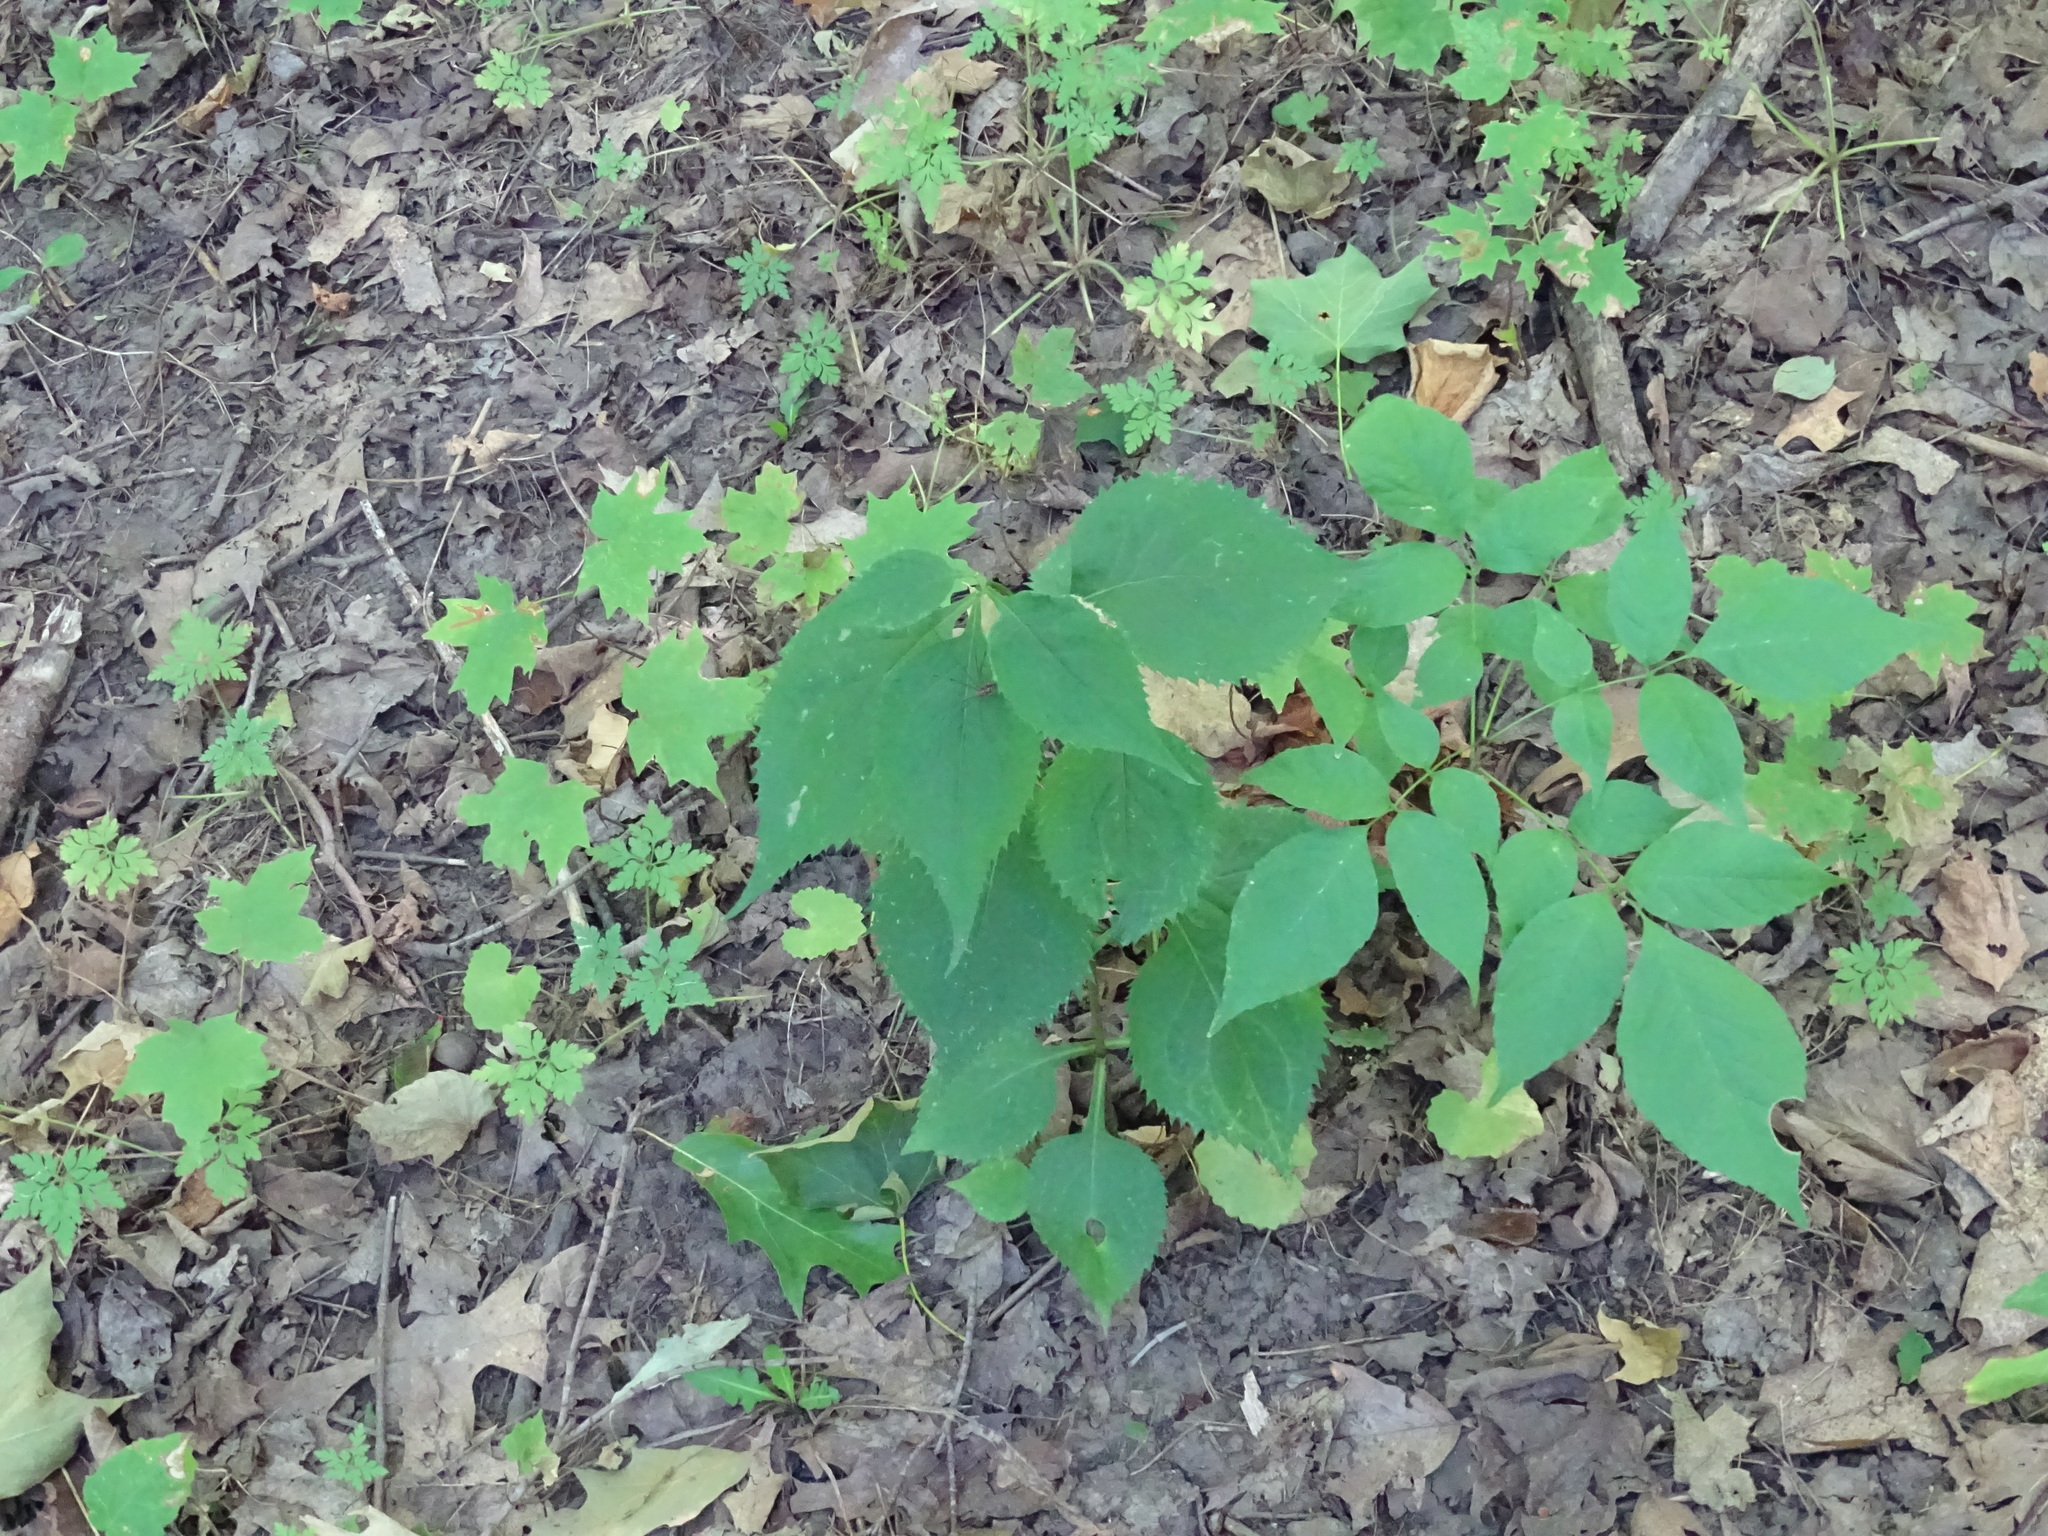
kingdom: Plantae
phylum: Tracheophyta
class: Magnoliopsida
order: Asterales
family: Asteraceae
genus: Solidago
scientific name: Solidago flexicaulis
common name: Zig-zag goldenrod
